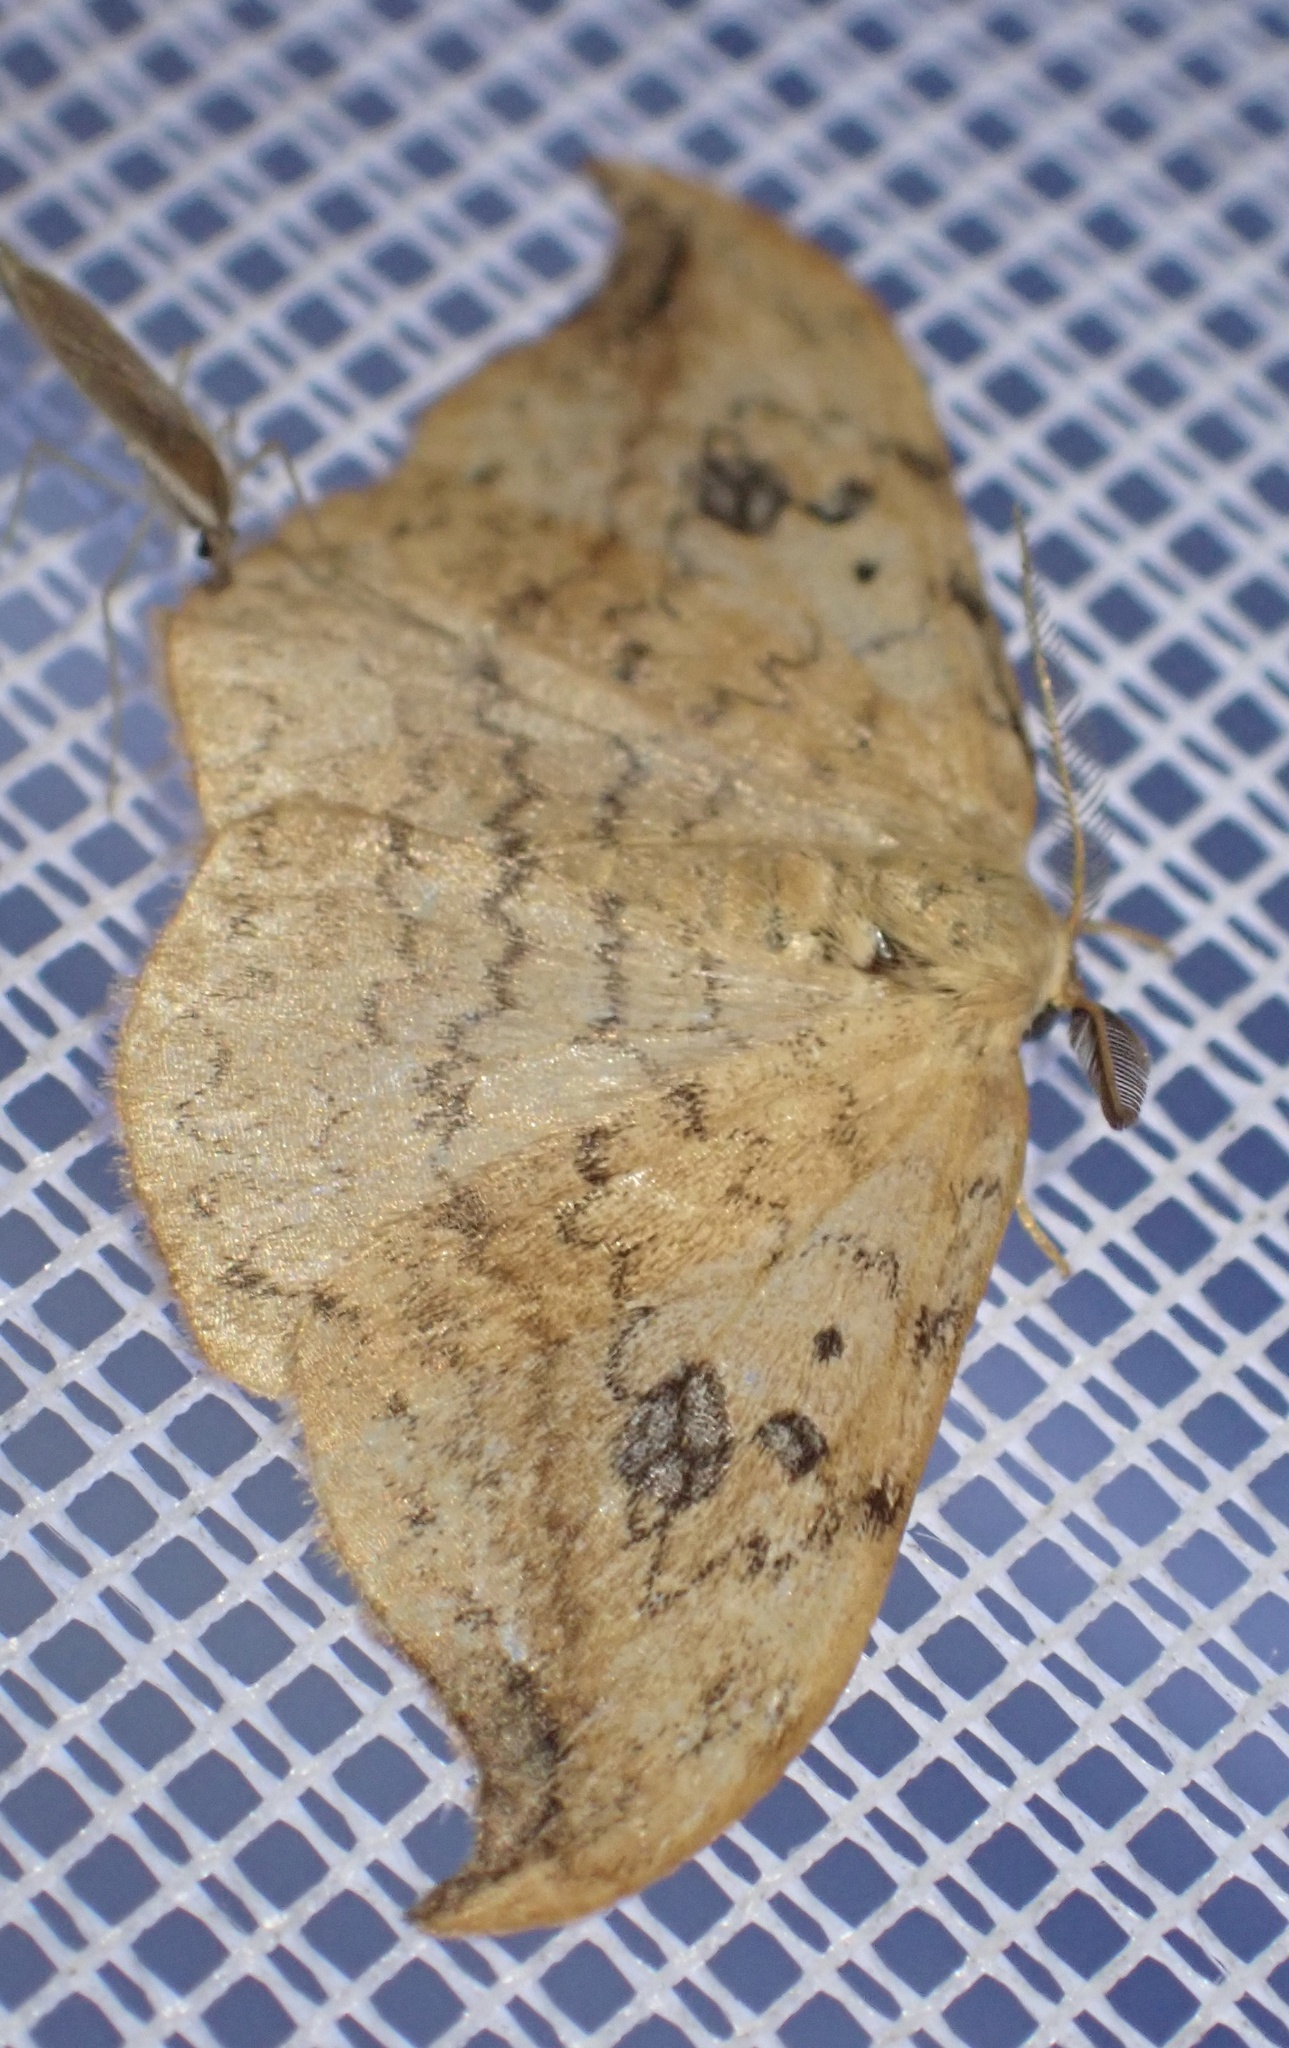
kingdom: Animalia
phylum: Arthropoda
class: Insecta
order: Lepidoptera
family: Drepanidae
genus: Drepana
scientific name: Drepana falcataria
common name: Pebble hook-tip
